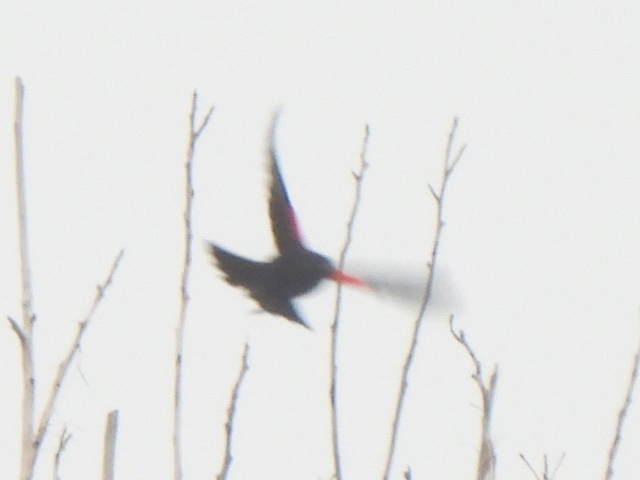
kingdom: Animalia
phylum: Chordata
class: Aves
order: Passeriformes
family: Icteridae
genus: Agelaius
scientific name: Agelaius phoeniceus
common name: Red-winged blackbird
